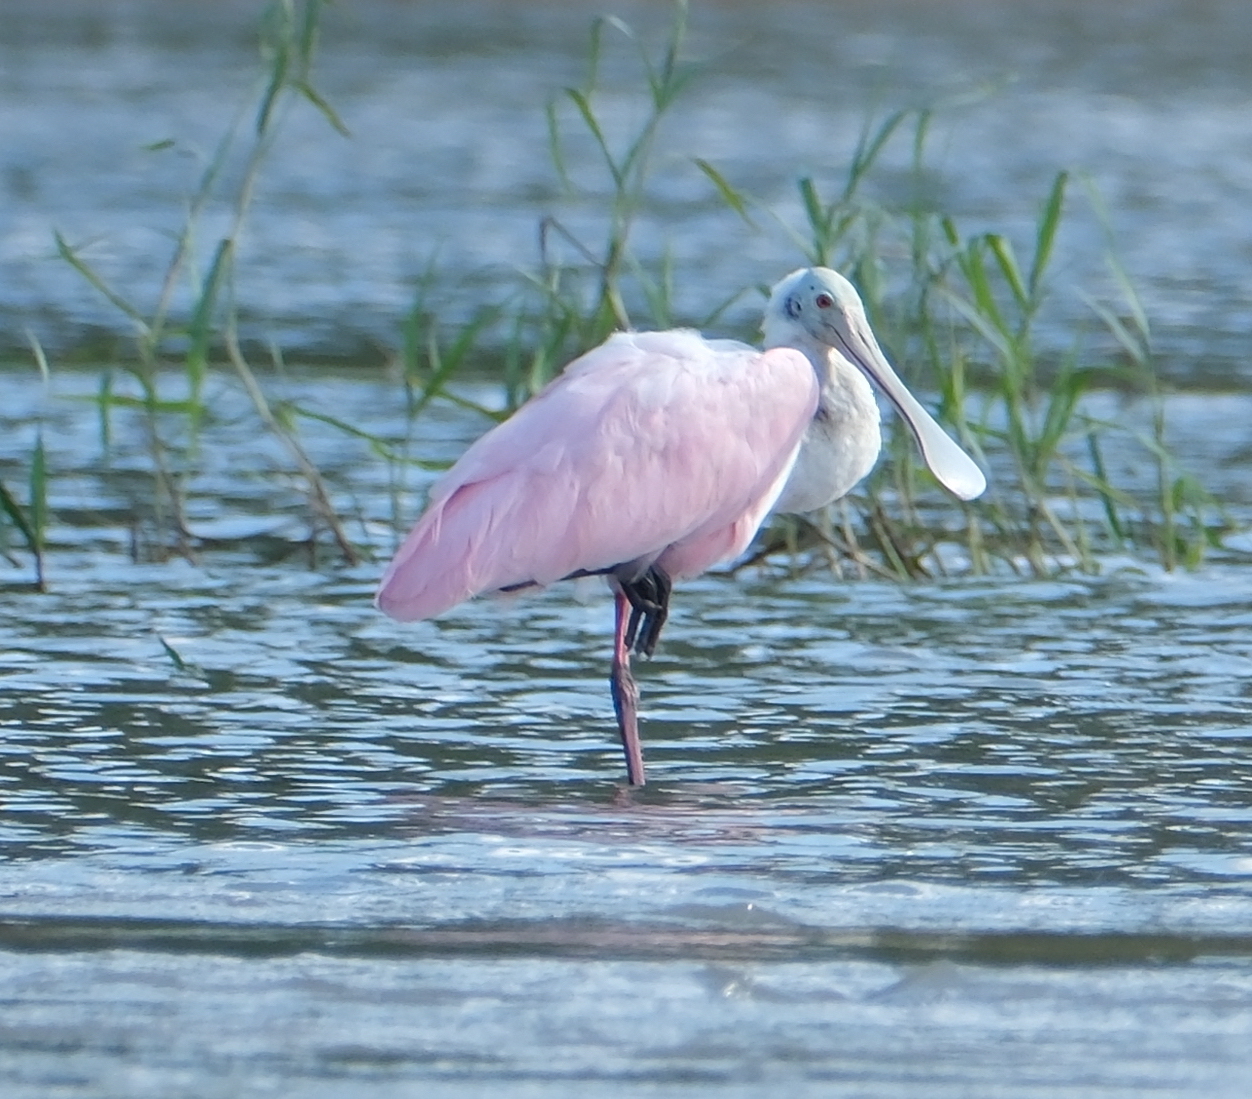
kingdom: Animalia
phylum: Chordata
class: Aves
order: Pelecaniformes
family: Threskiornithidae
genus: Platalea
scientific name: Platalea ajaja
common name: Roseate spoonbill
